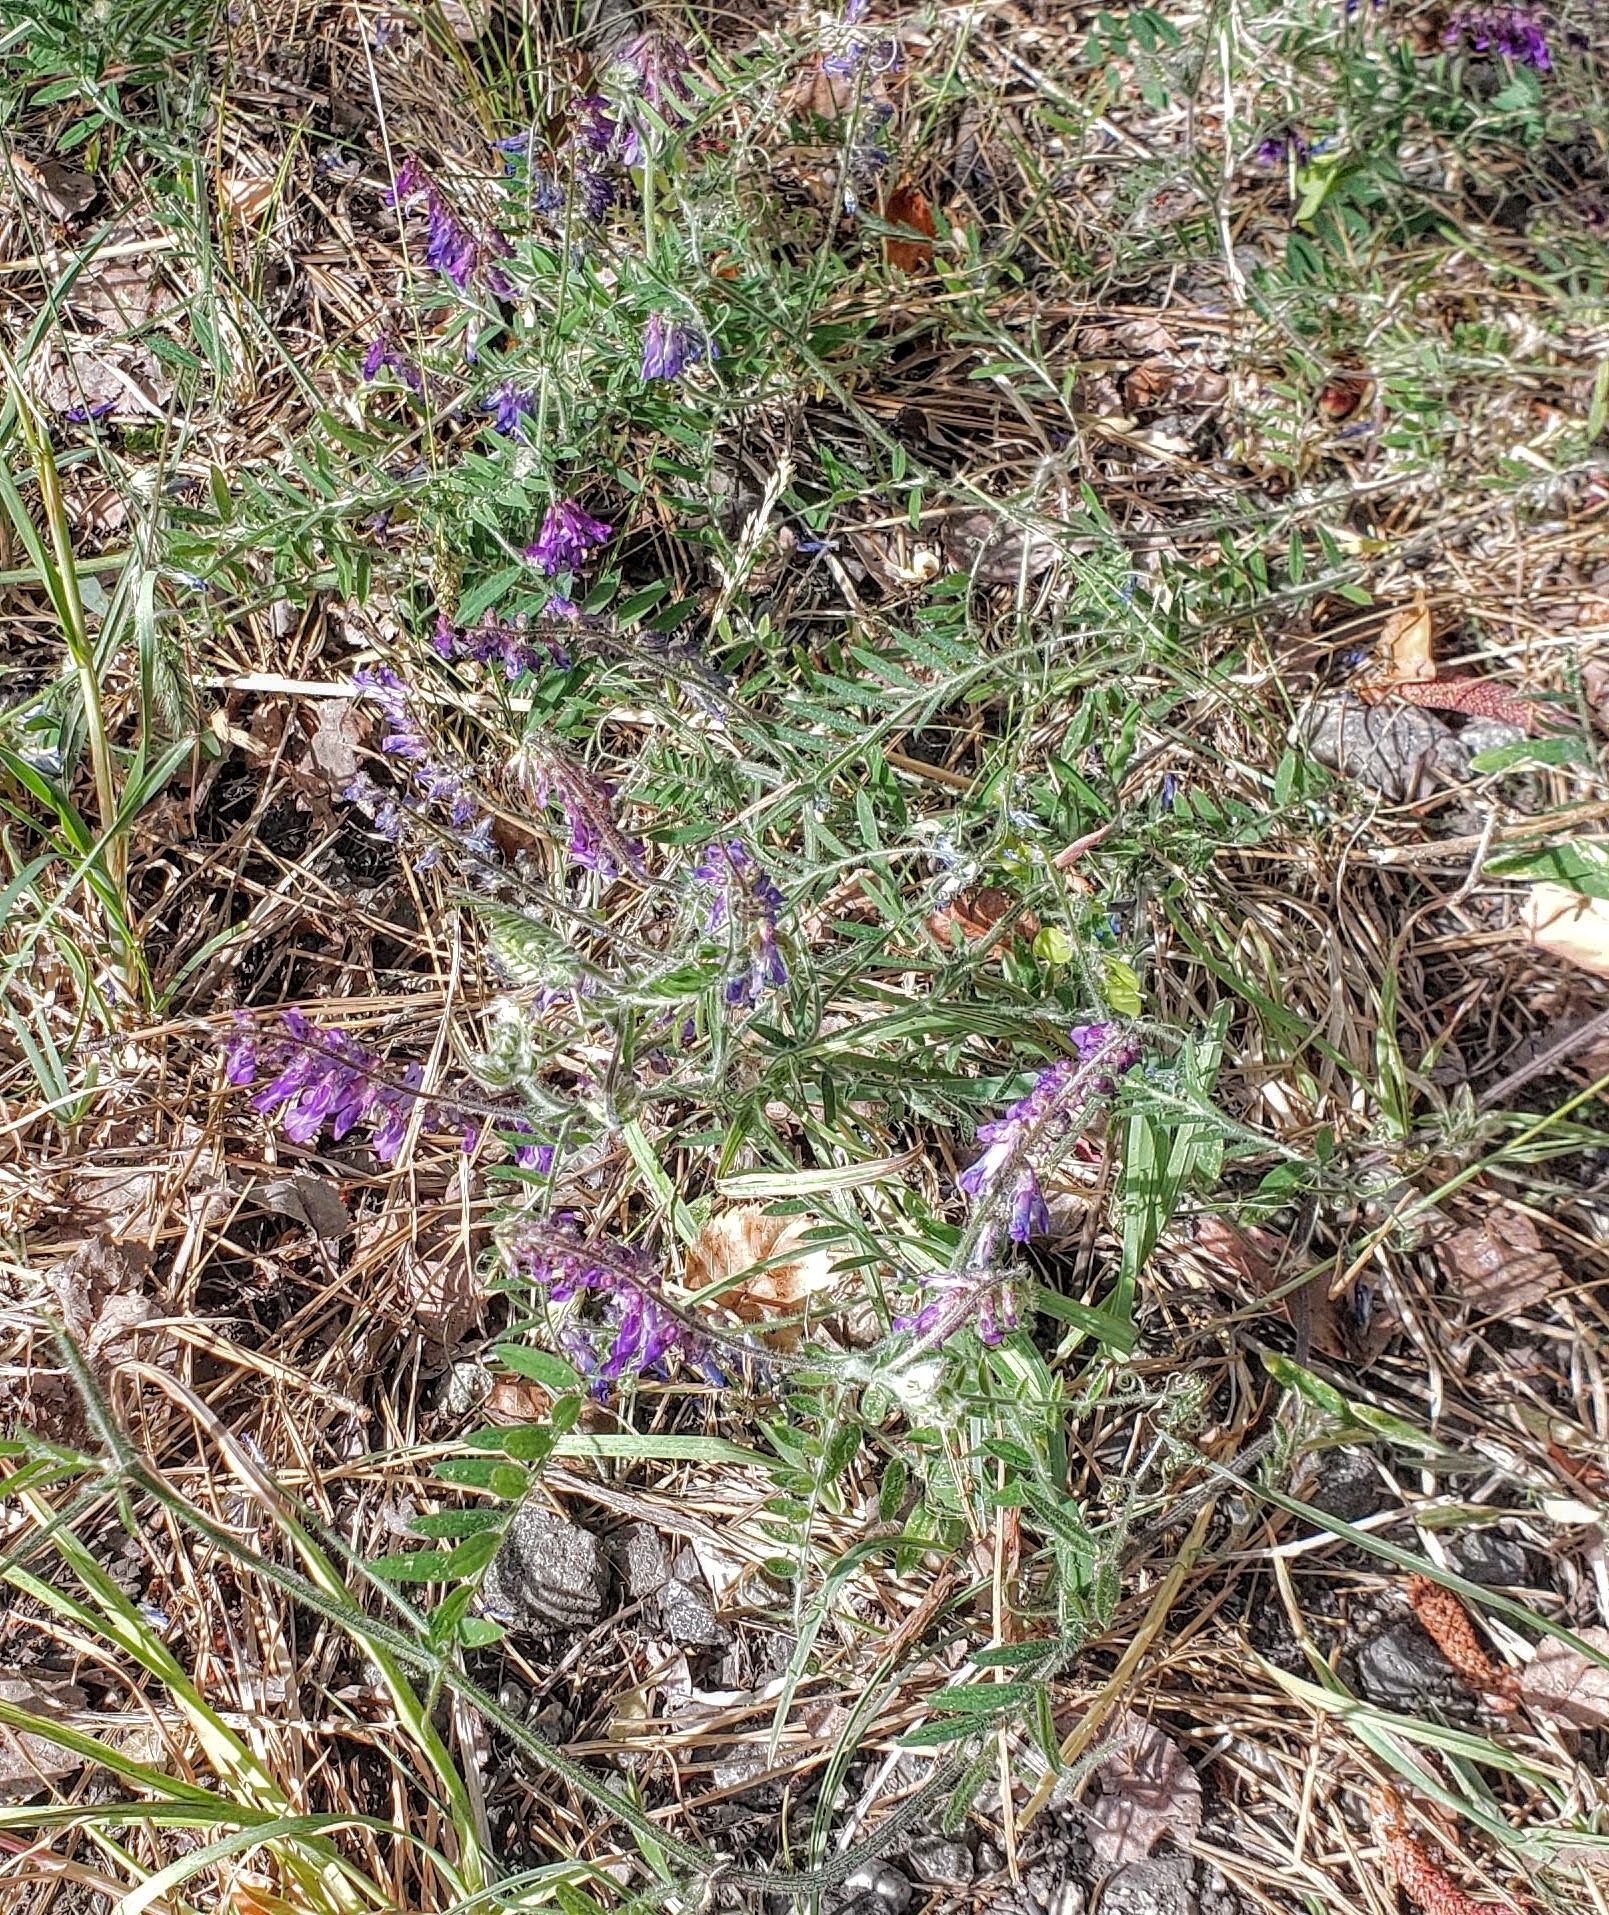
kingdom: Plantae
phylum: Tracheophyta
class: Magnoliopsida
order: Fabales
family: Fabaceae
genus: Vicia
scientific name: Vicia villosa
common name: Fodder vetch
